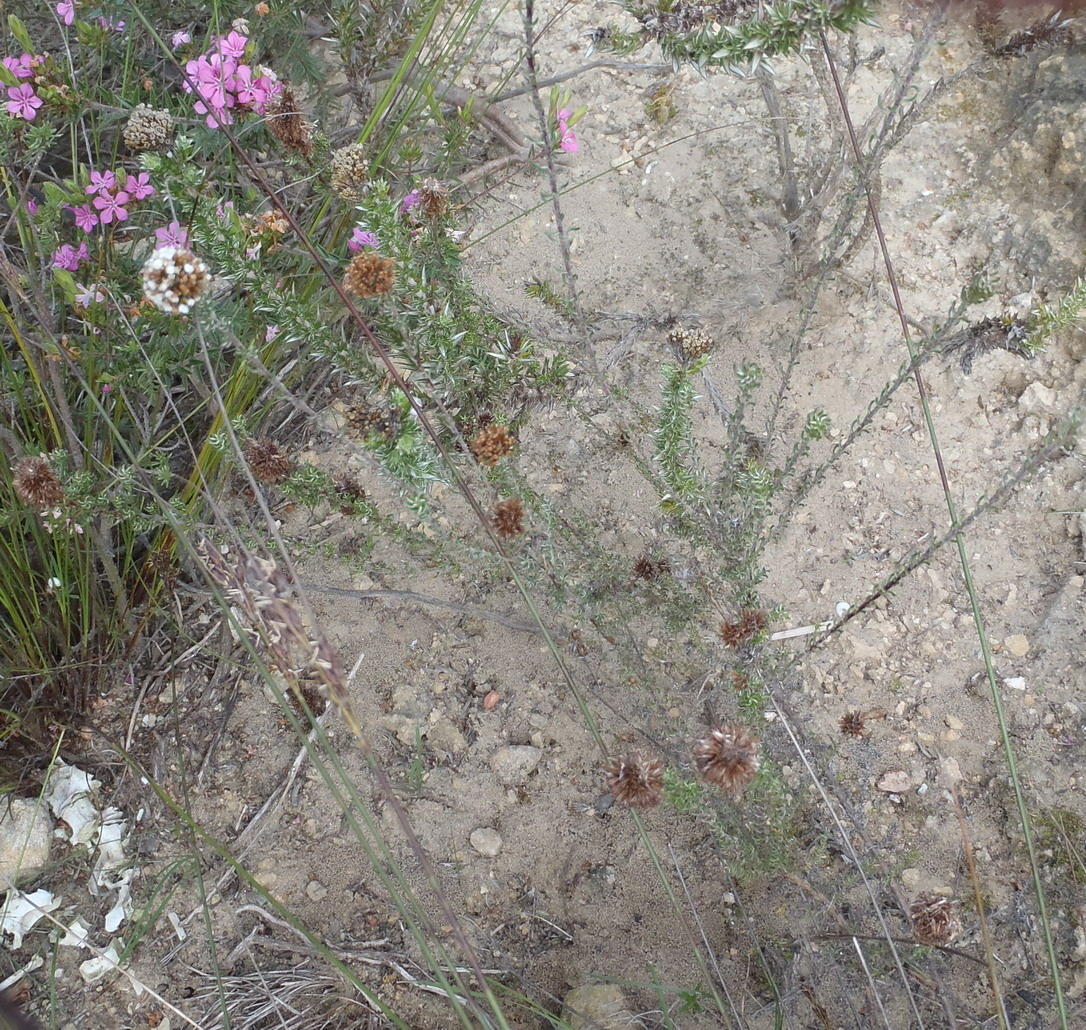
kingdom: Plantae
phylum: Tracheophyta
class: Magnoliopsida
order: Asterales
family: Asteraceae
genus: Disparago
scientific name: Disparago anomala
